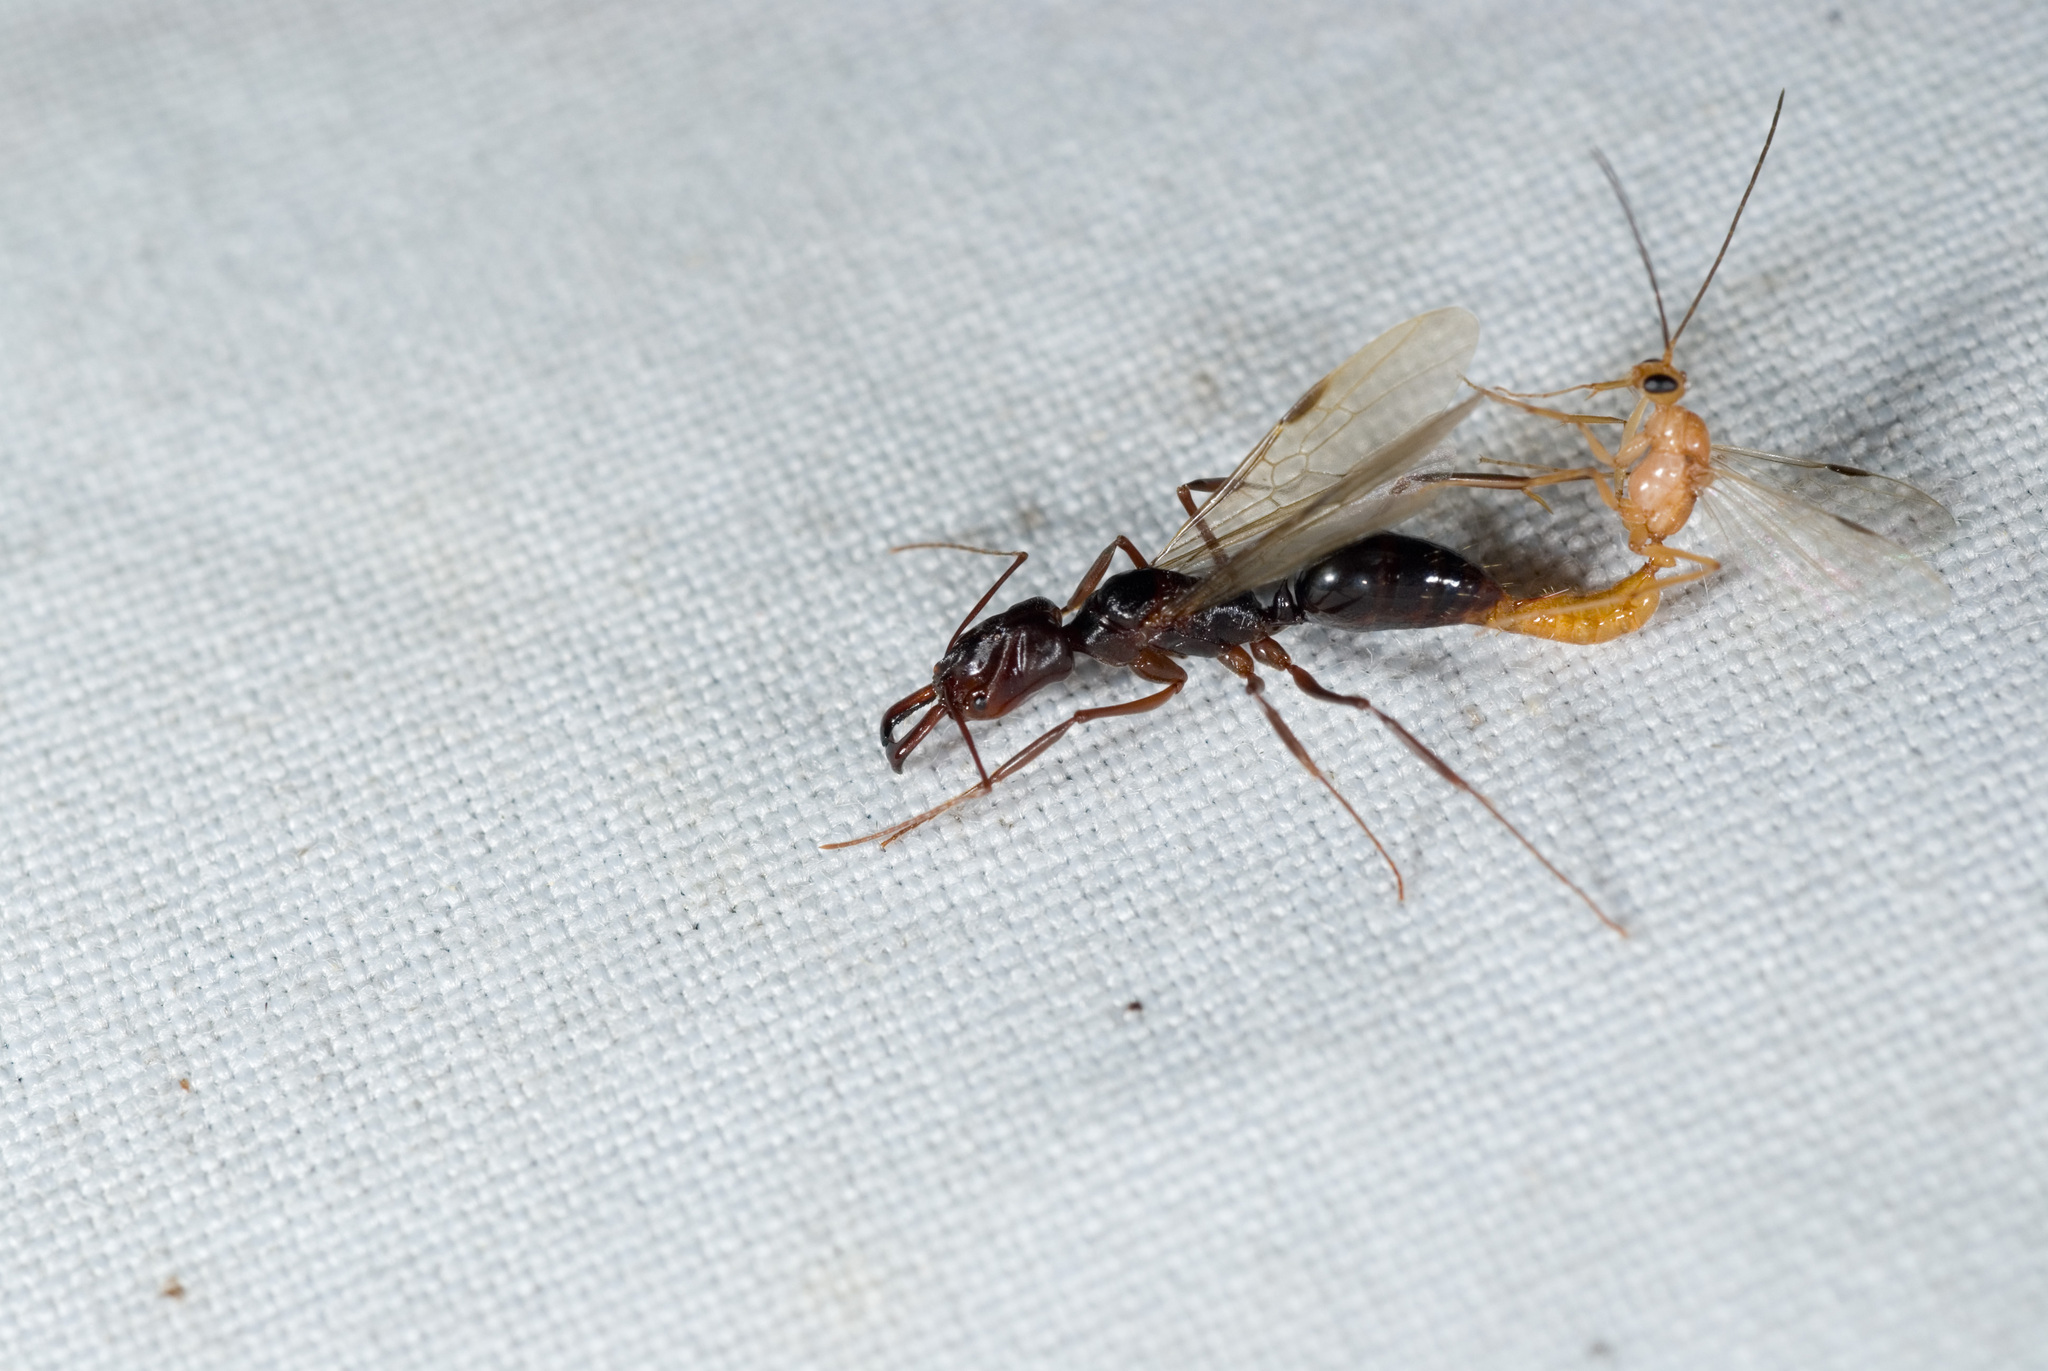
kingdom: Animalia
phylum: Arthropoda
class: Insecta
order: Hymenoptera
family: Formicidae
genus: Odontomachus
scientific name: Odontomachus monticola
